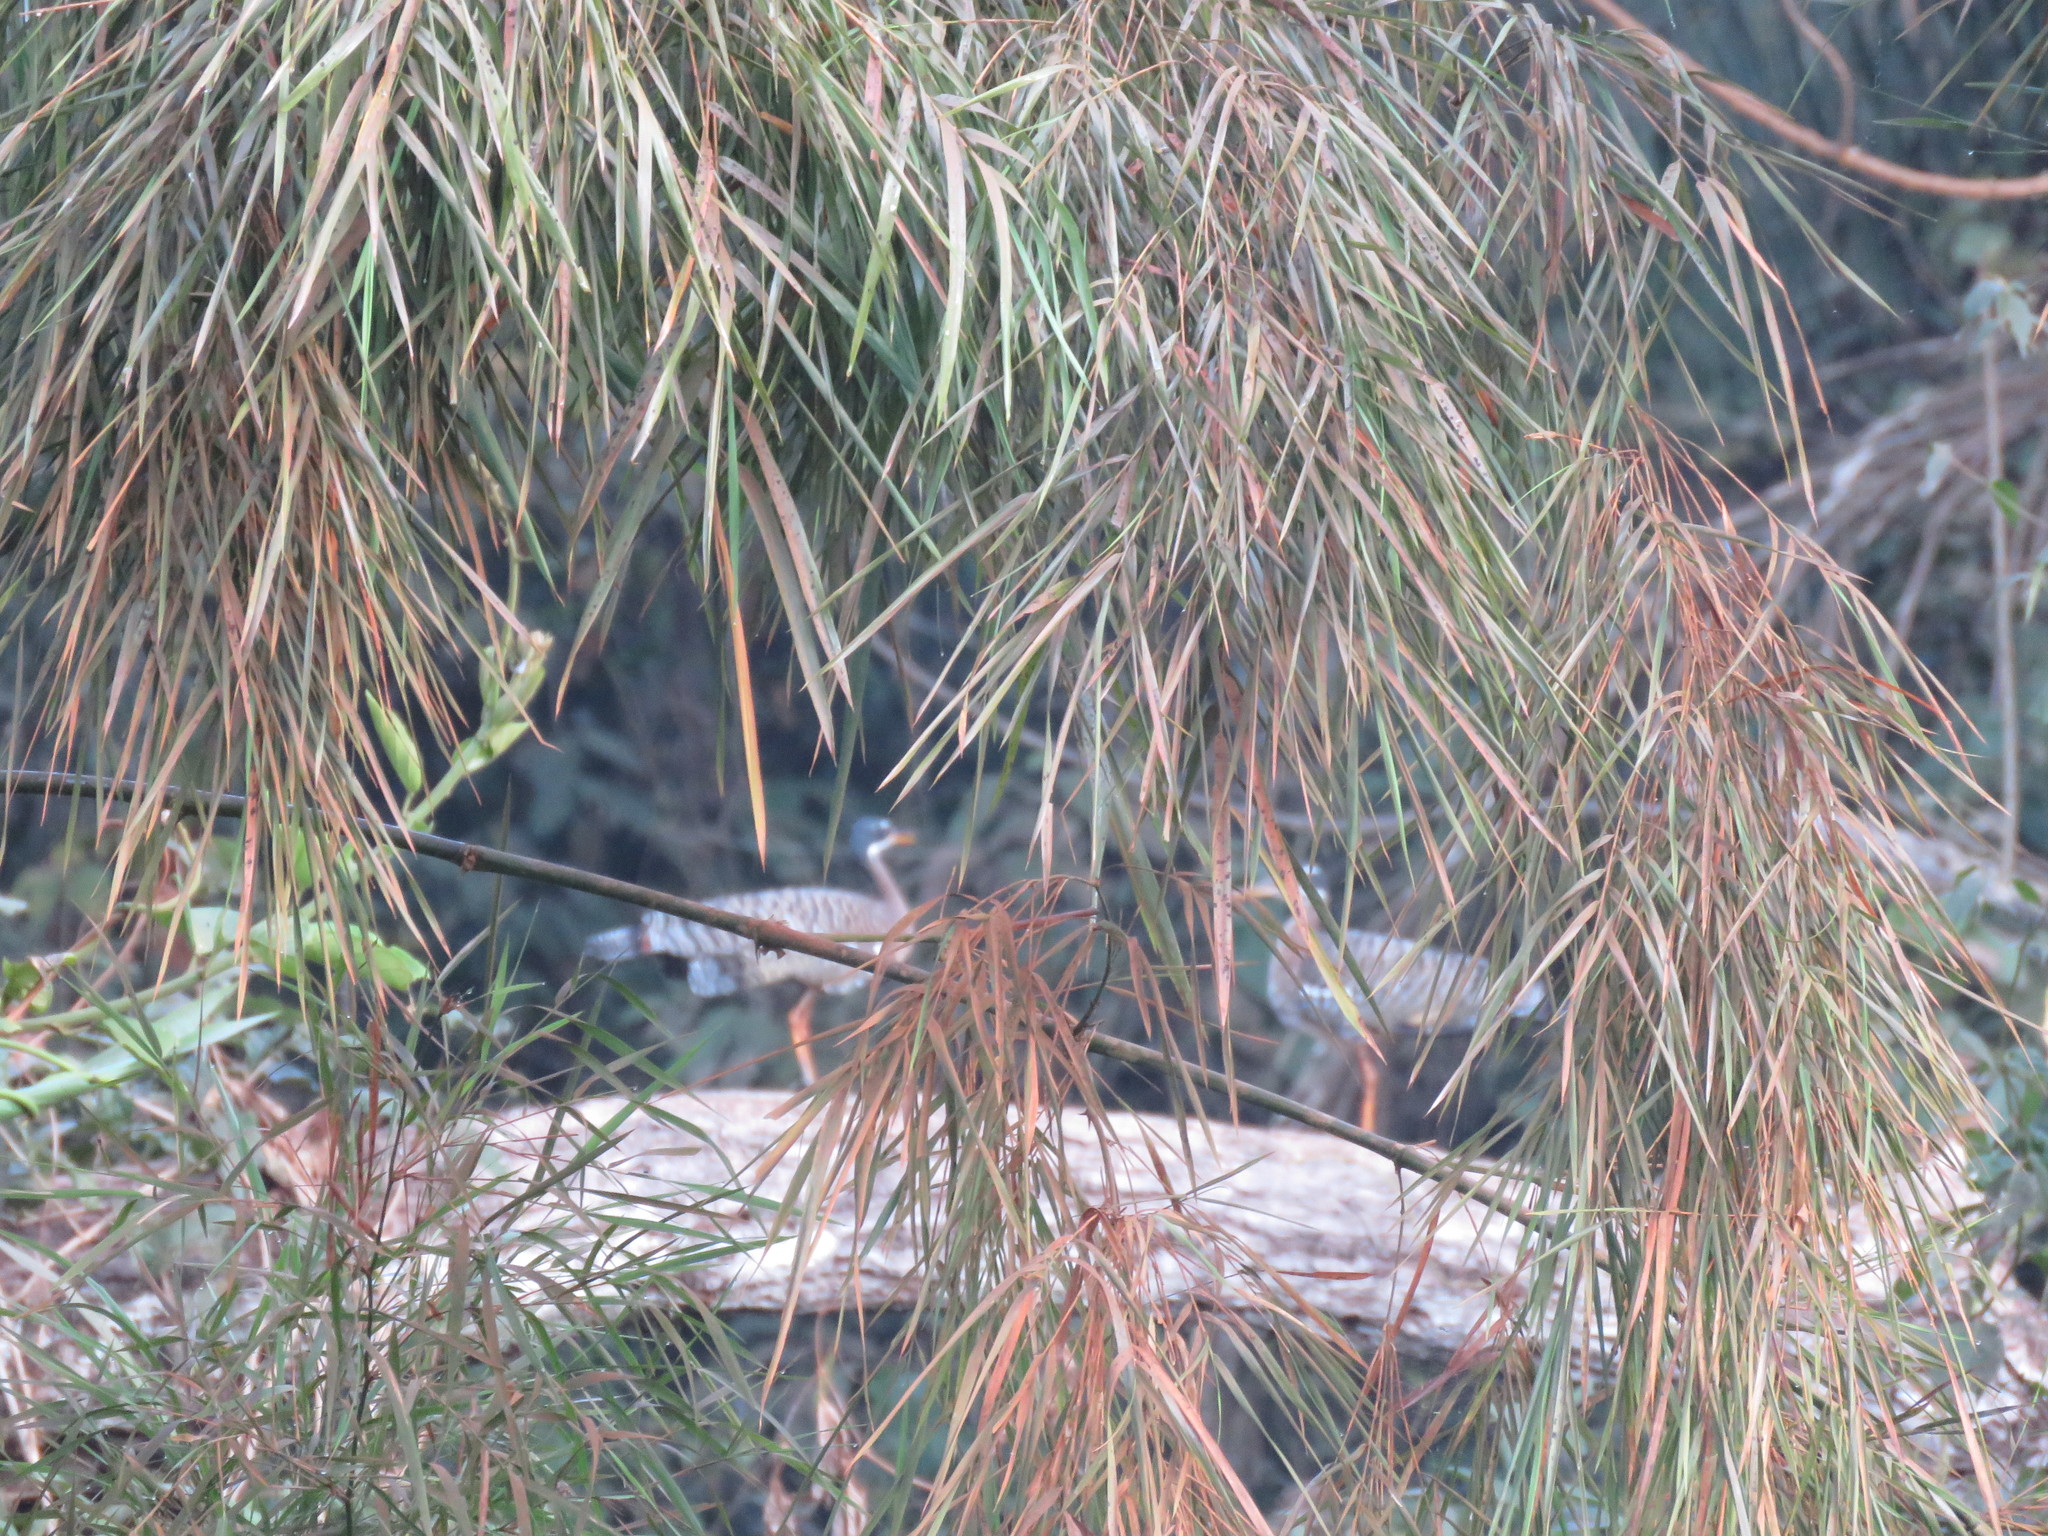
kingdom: Animalia
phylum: Chordata
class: Aves
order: Eurypygiformes
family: Eurypygidae
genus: Eurypyga
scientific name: Eurypyga helias
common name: Sunbittern
